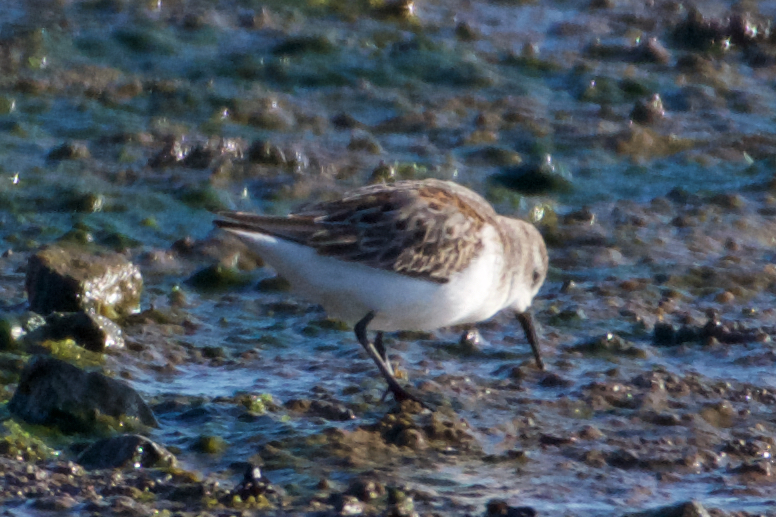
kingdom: Animalia
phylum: Chordata
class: Aves
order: Charadriiformes
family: Scolopacidae
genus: Calidris
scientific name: Calidris mauri
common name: Western sandpiper
